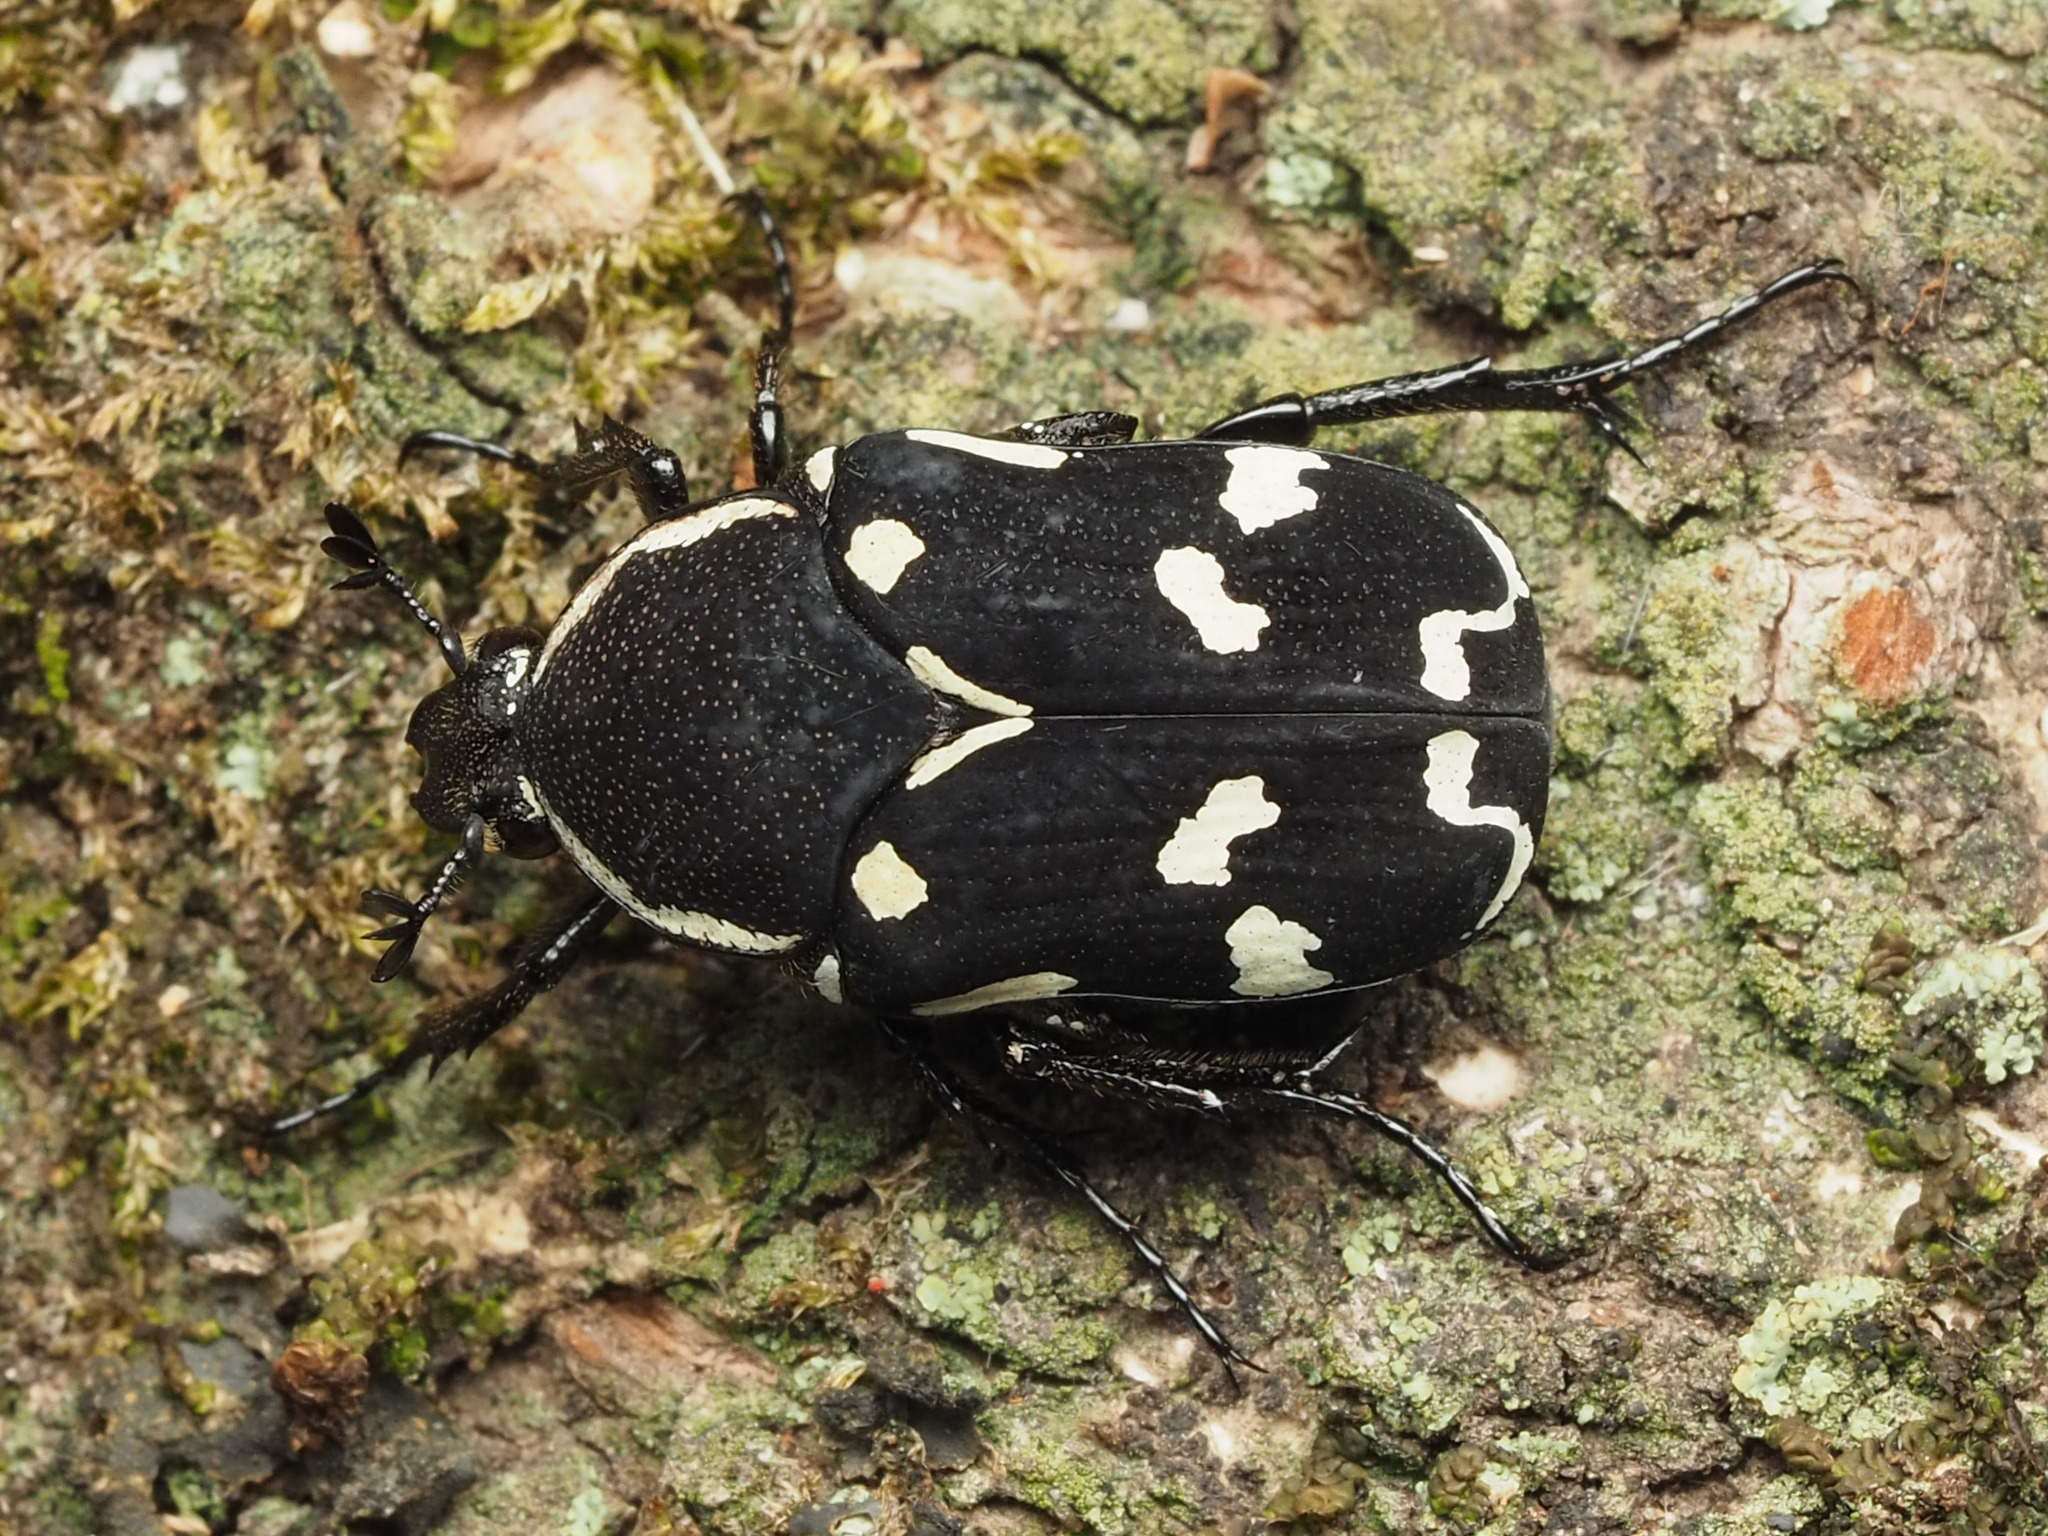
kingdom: Animalia
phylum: Arthropoda
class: Insecta
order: Coleoptera
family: Scarabaeidae
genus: Amithao
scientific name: Amithao marginicollis
